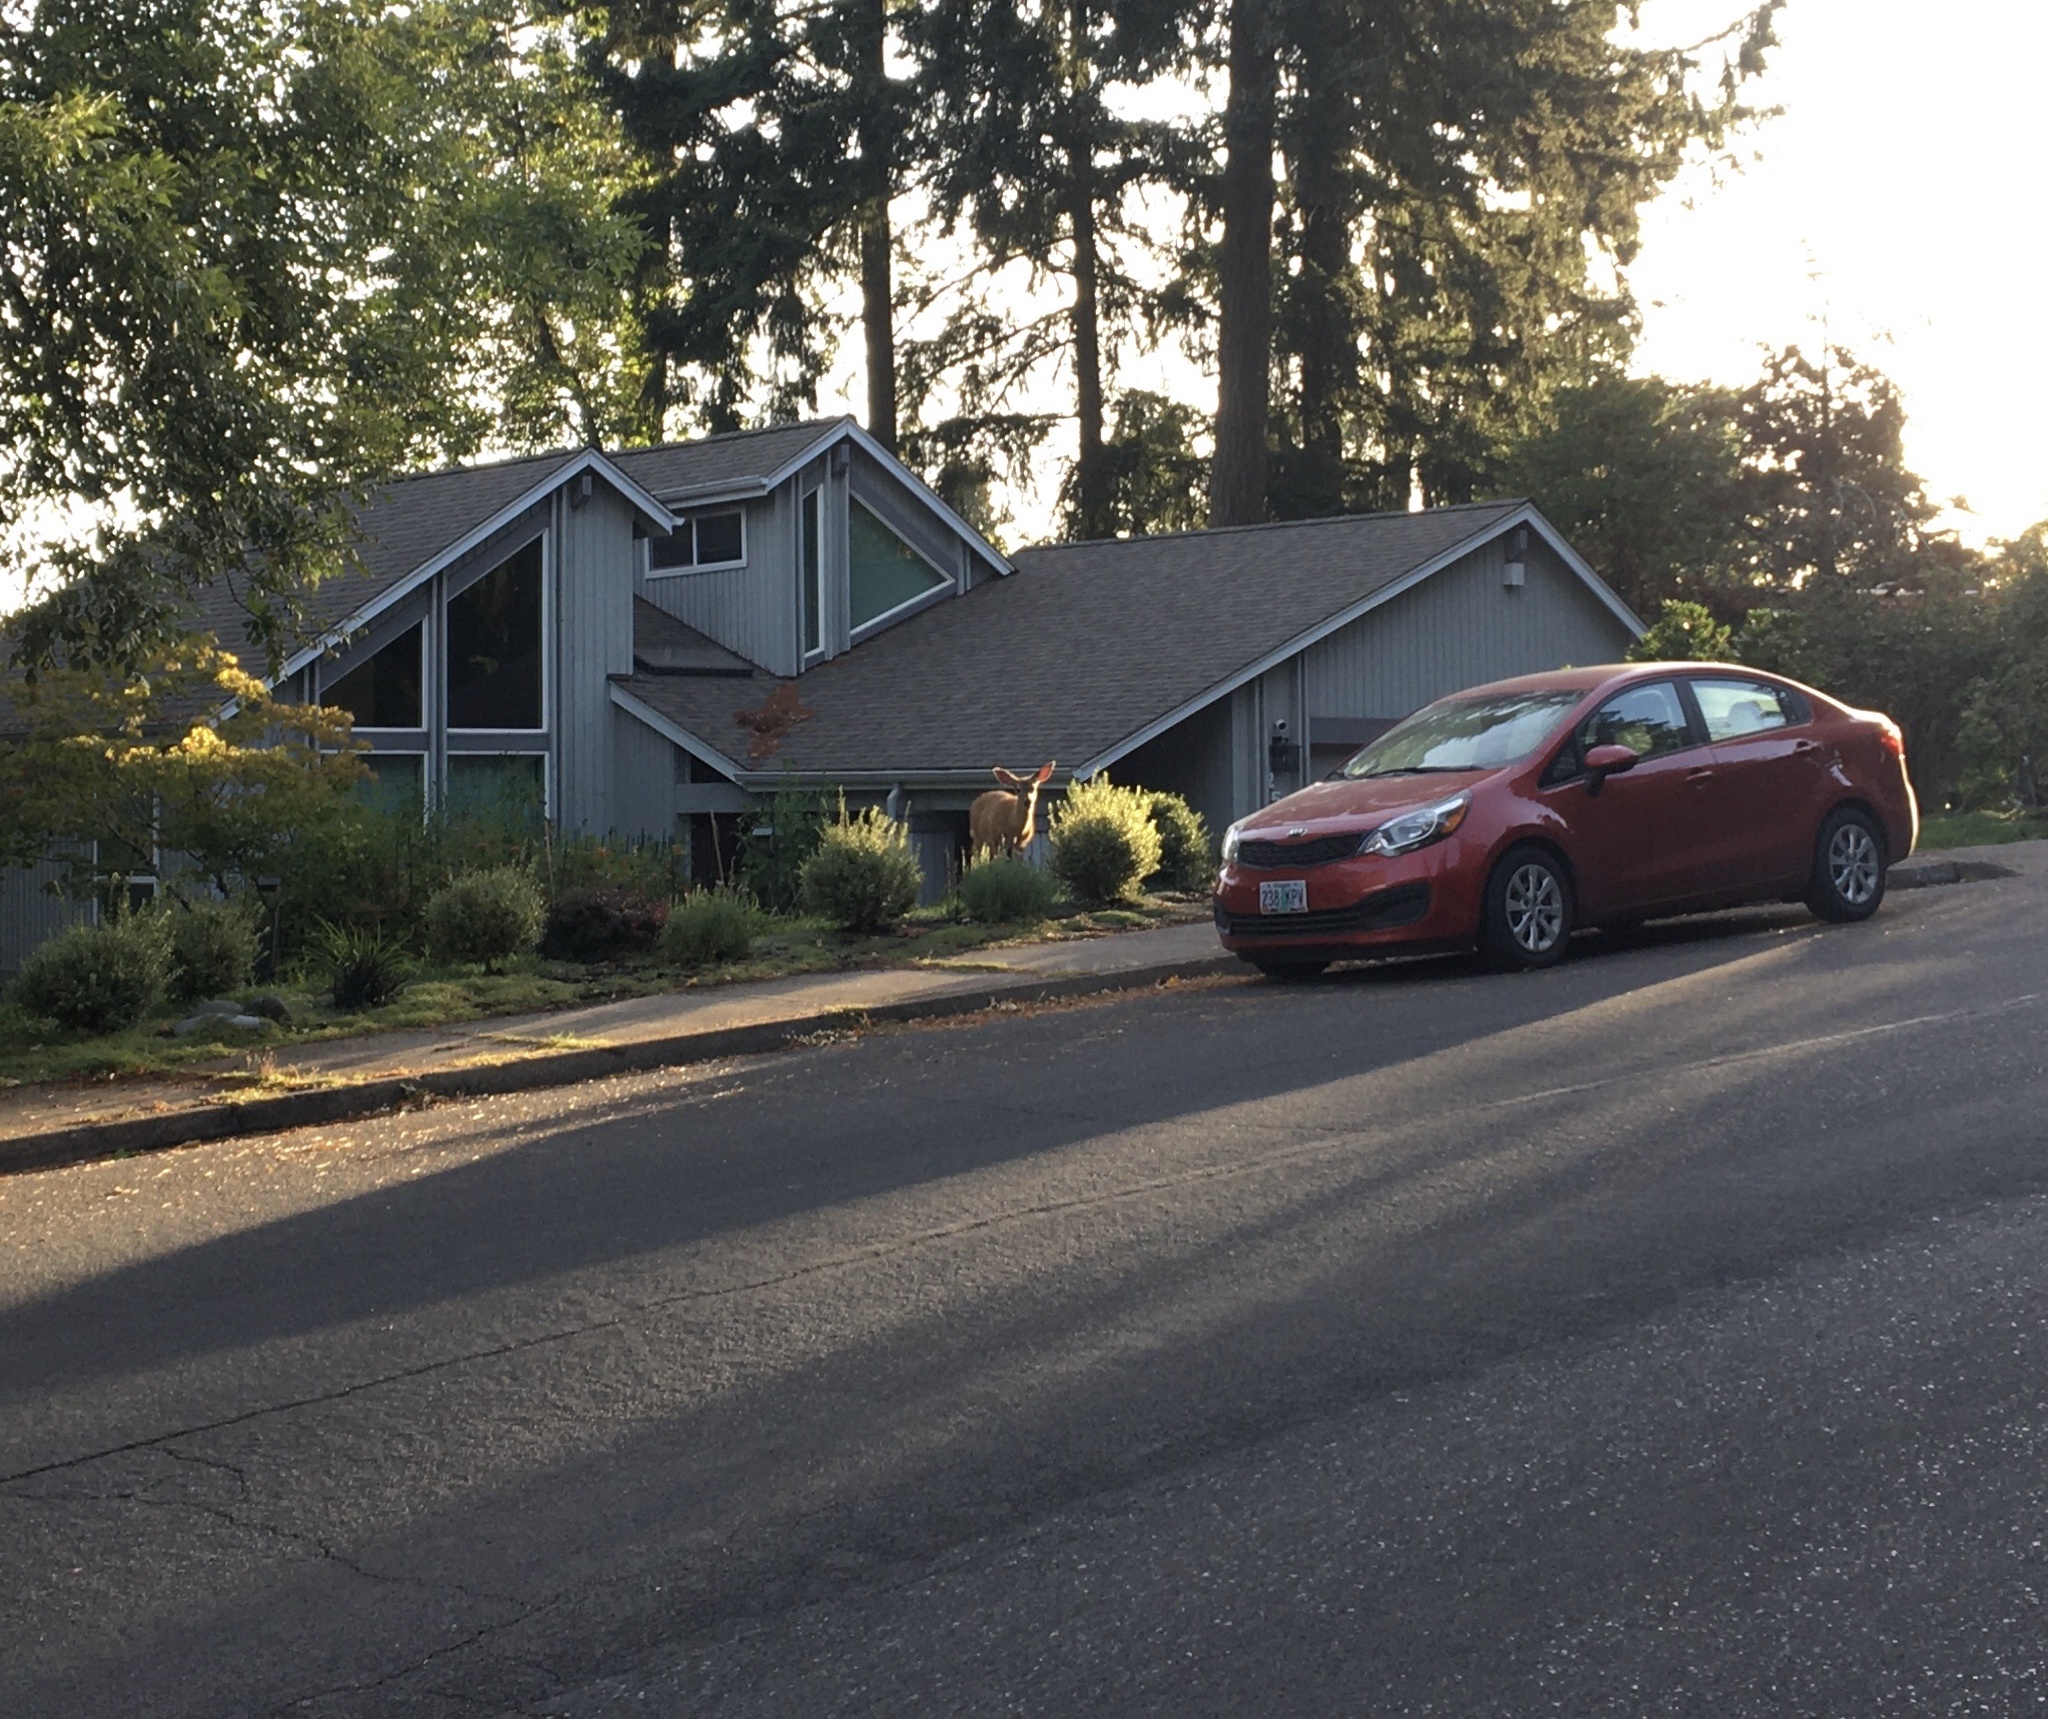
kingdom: Animalia
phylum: Chordata
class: Mammalia
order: Artiodactyla
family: Cervidae
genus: Odocoileus
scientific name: Odocoileus hemionus
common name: Mule deer
